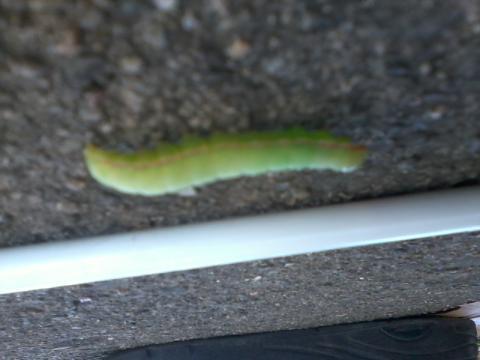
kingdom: Animalia
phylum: Arthropoda
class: Insecta
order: Lepidoptera
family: Notodontidae
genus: Peridea
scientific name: Peridea angulosa
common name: Angulose prominent
